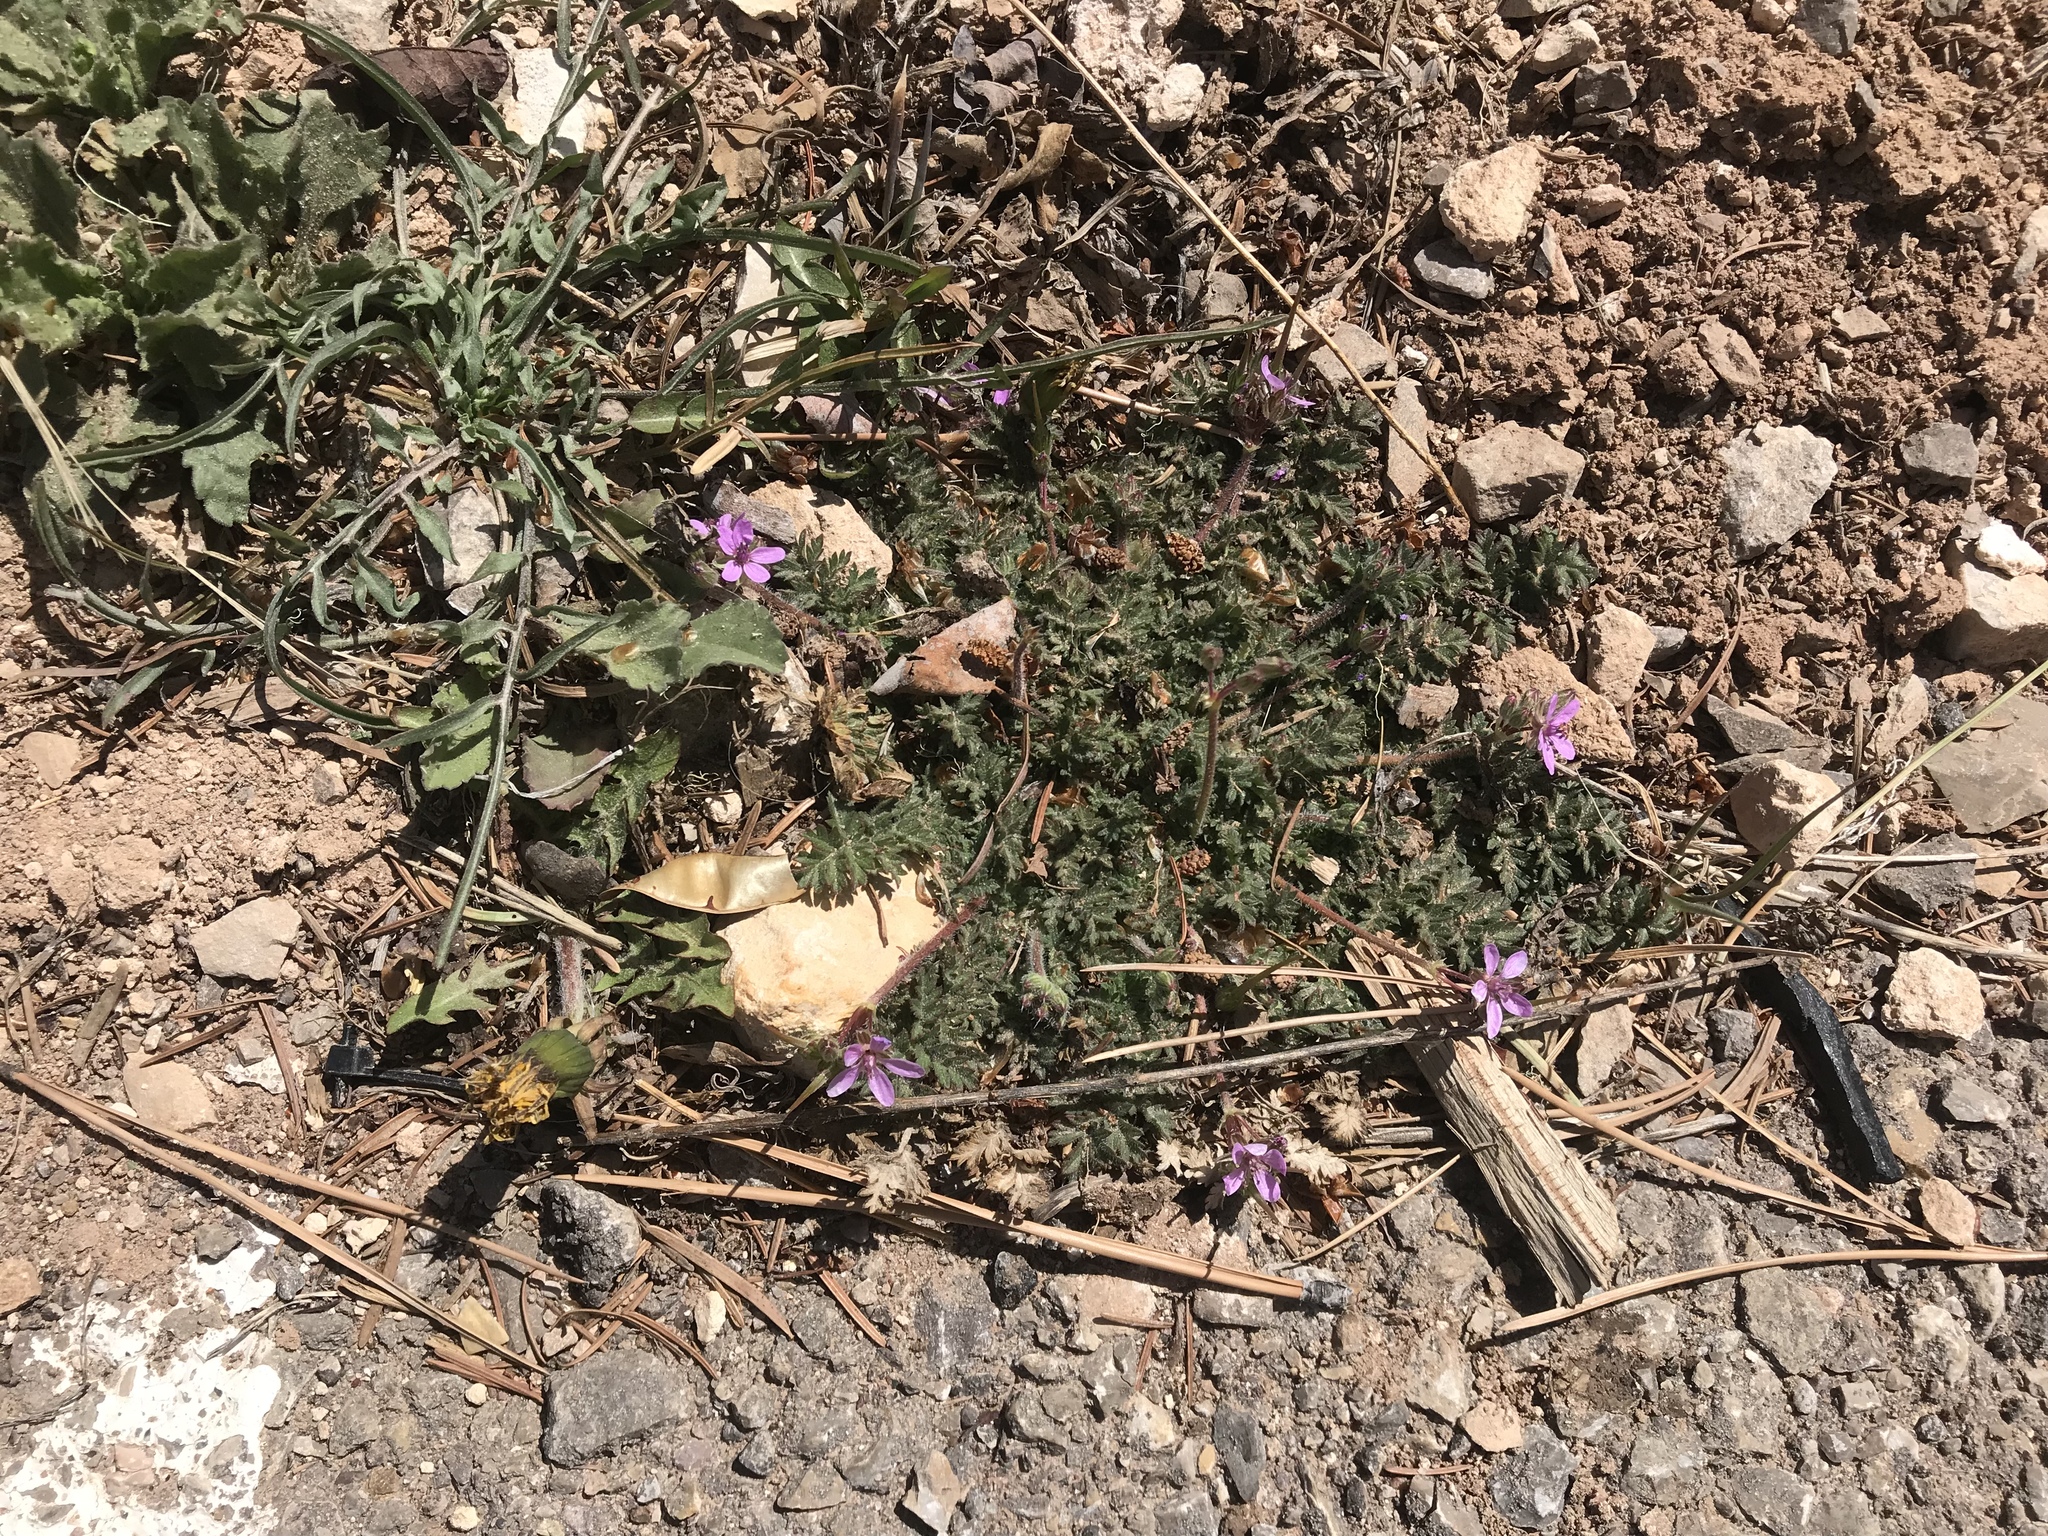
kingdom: Plantae
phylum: Tracheophyta
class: Magnoliopsida
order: Geraniales
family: Geraniaceae
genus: Erodium
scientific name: Erodium cicutarium
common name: Common stork's-bill
